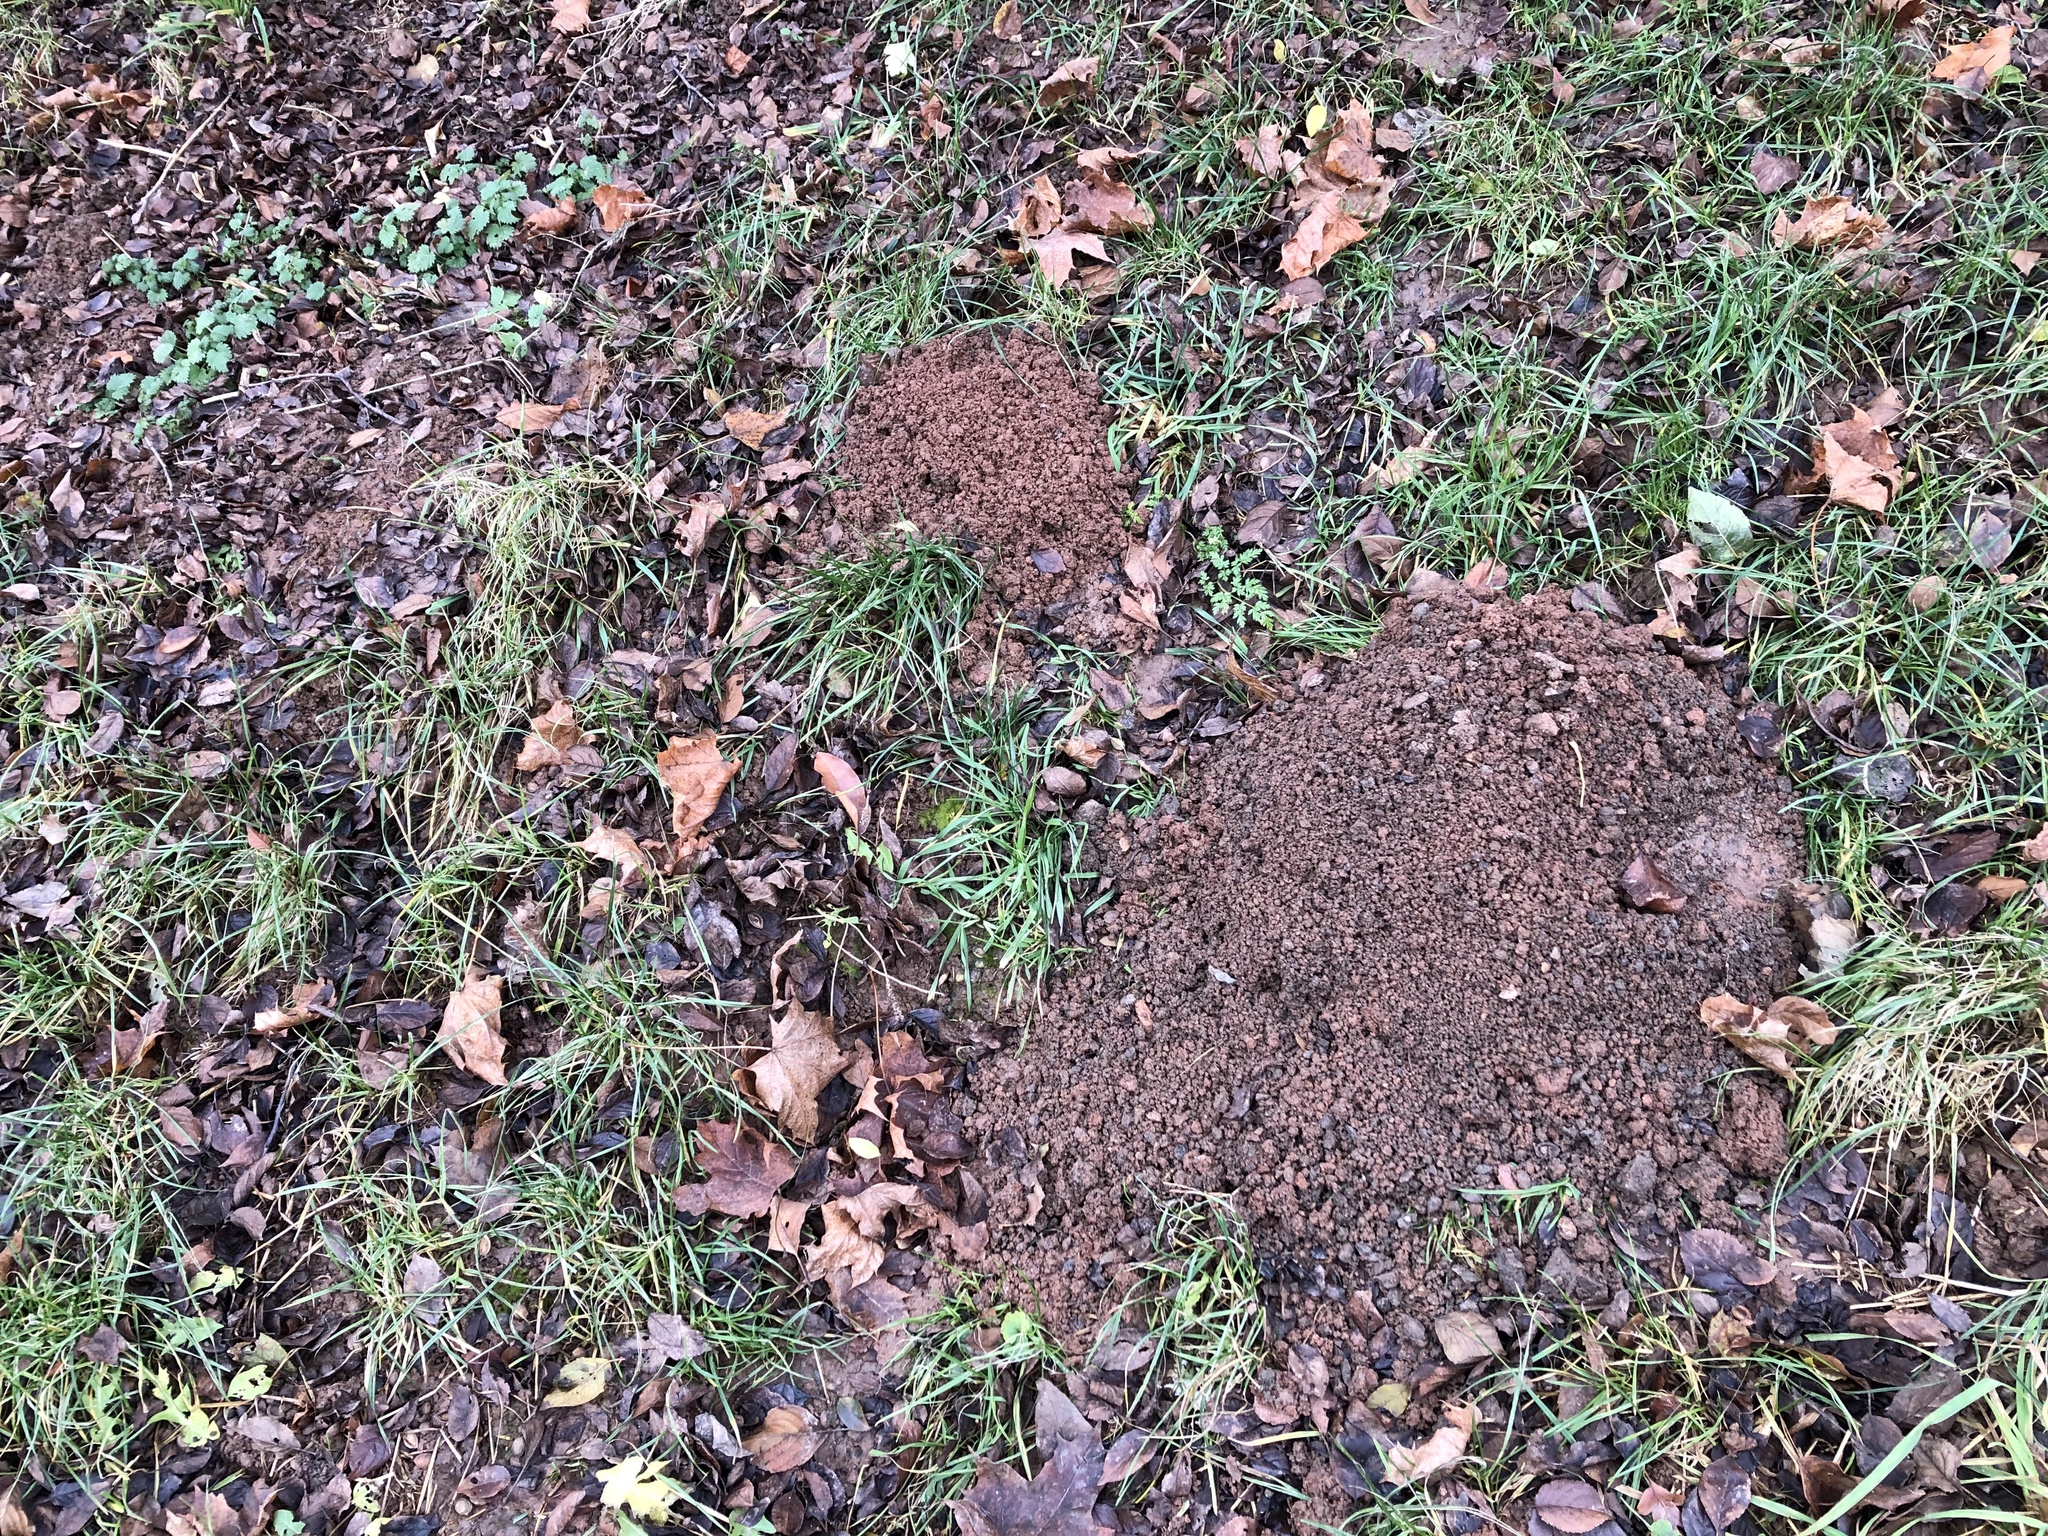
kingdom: Animalia
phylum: Chordata
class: Mammalia
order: Soricomorpha
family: Talpidae
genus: Talpa
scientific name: Talpa europaea
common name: European mole
